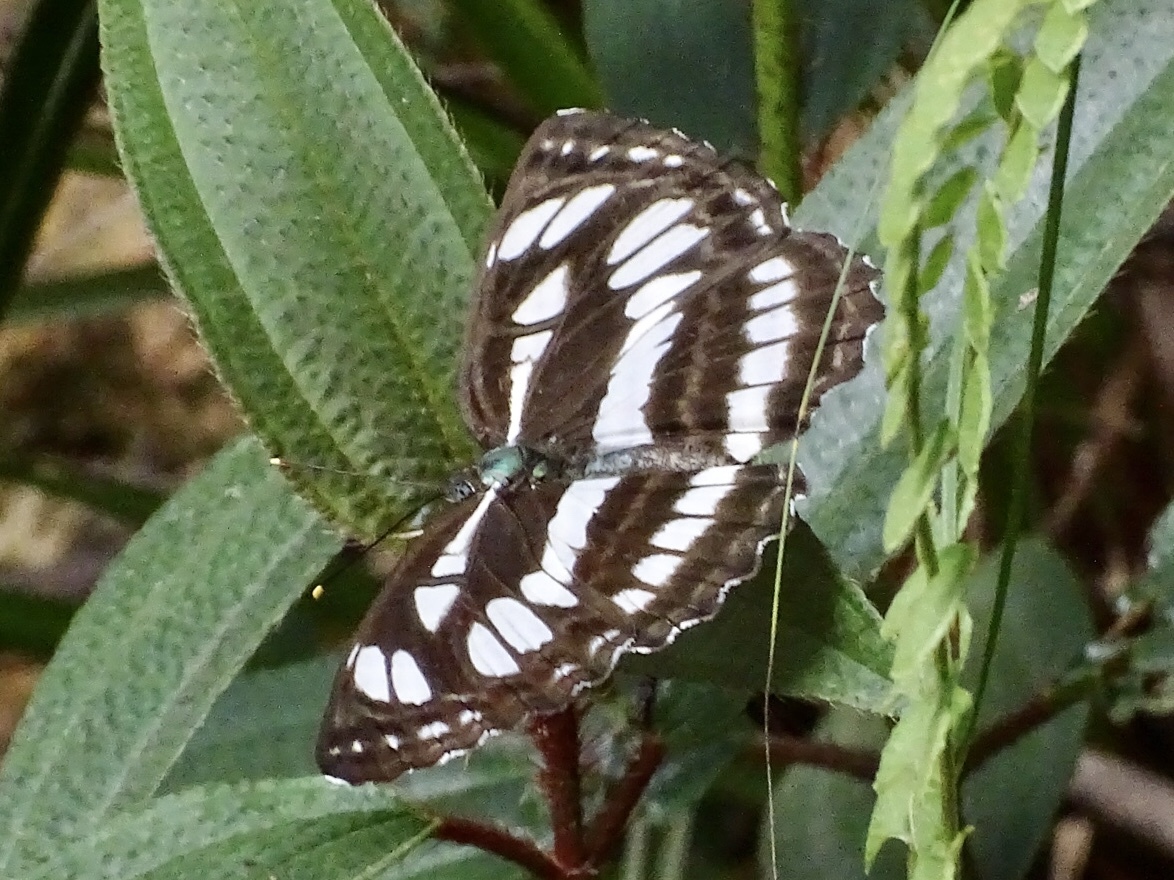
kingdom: Animalia
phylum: Arthropoda
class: Insecta
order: Lepidoptera
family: Nymphalidae
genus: Neptis
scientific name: Neptis hylas
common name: Common sailer
